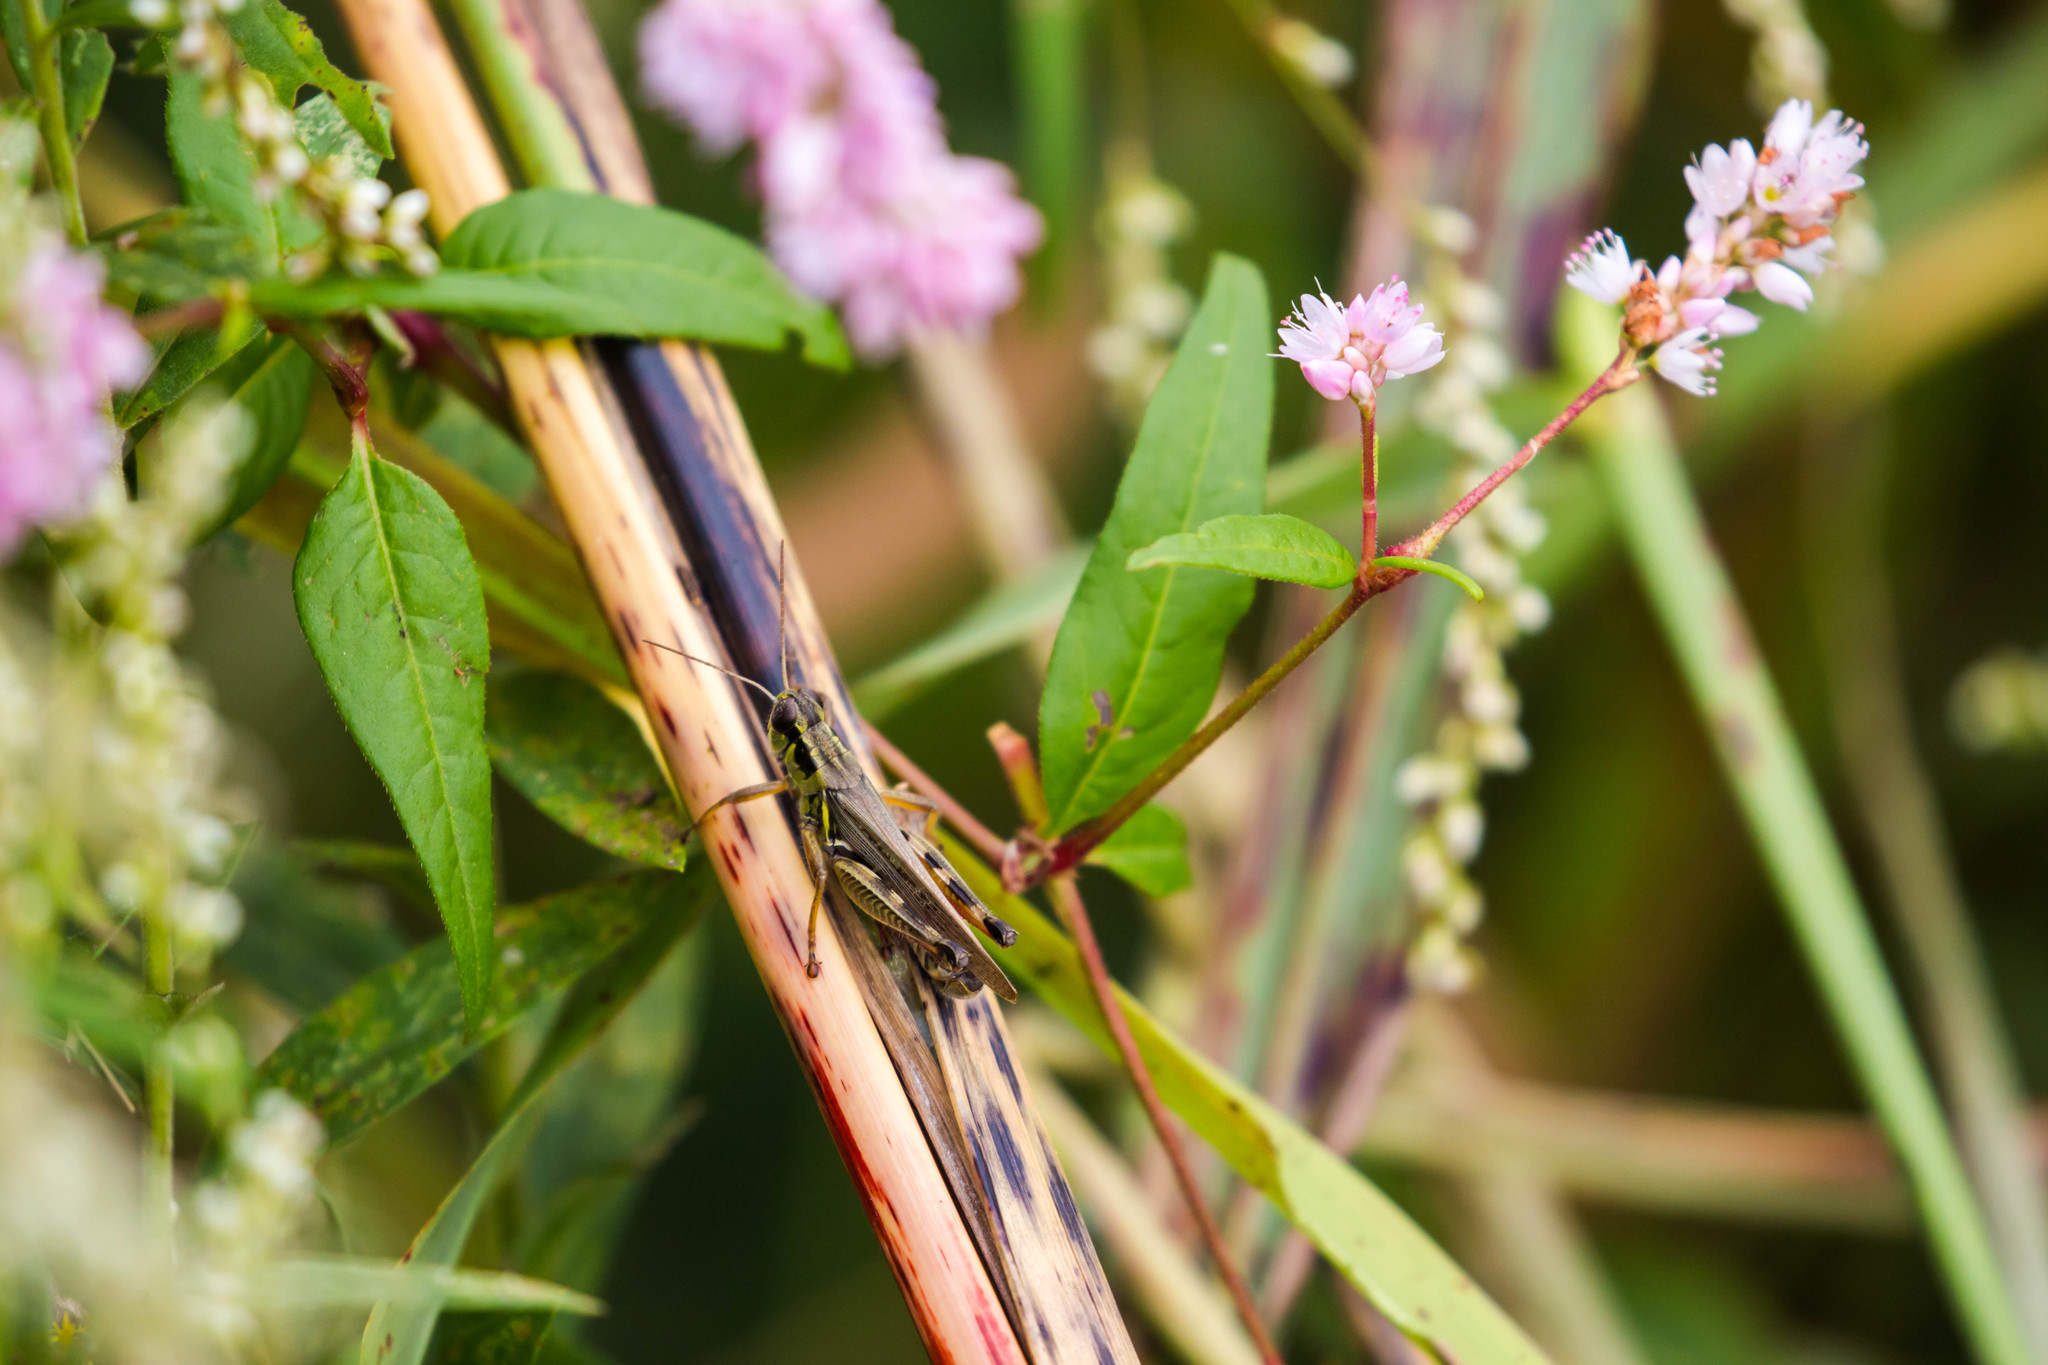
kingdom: Animalia
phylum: Arthropoda
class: Insecta
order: Orthoptera
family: Acrididae
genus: Melanoplus
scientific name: Melanoplus femurrubrum
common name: Red-legged grasshopper
